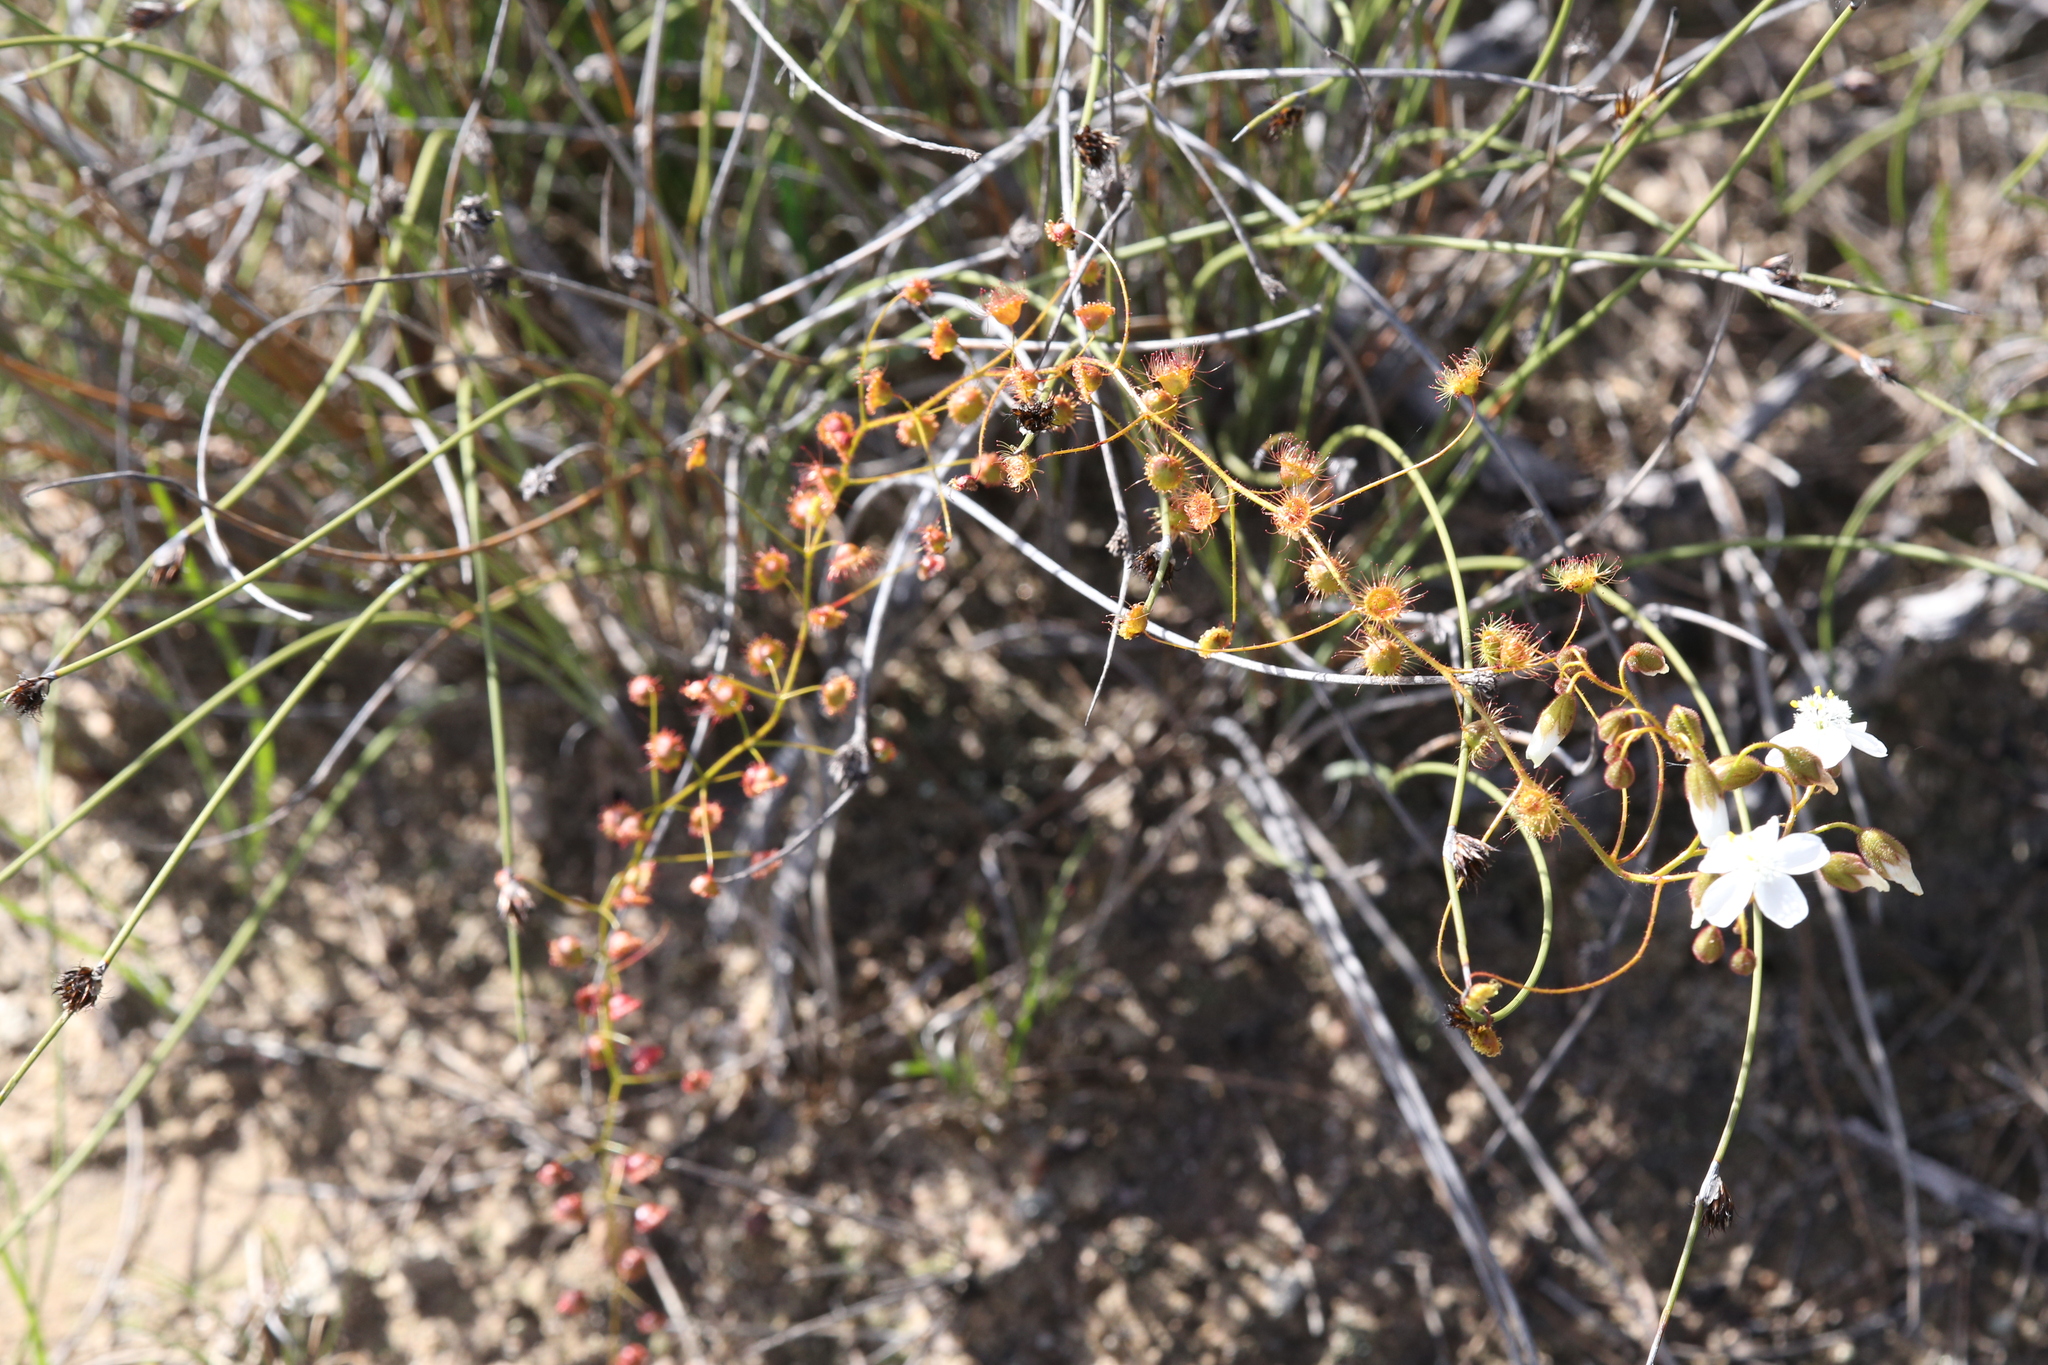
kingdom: Plantae
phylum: Tracheophyta
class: Magnoliopsida
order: Caryophyllales
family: Droseraceae
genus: Drosera
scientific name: Drosera macrantha
